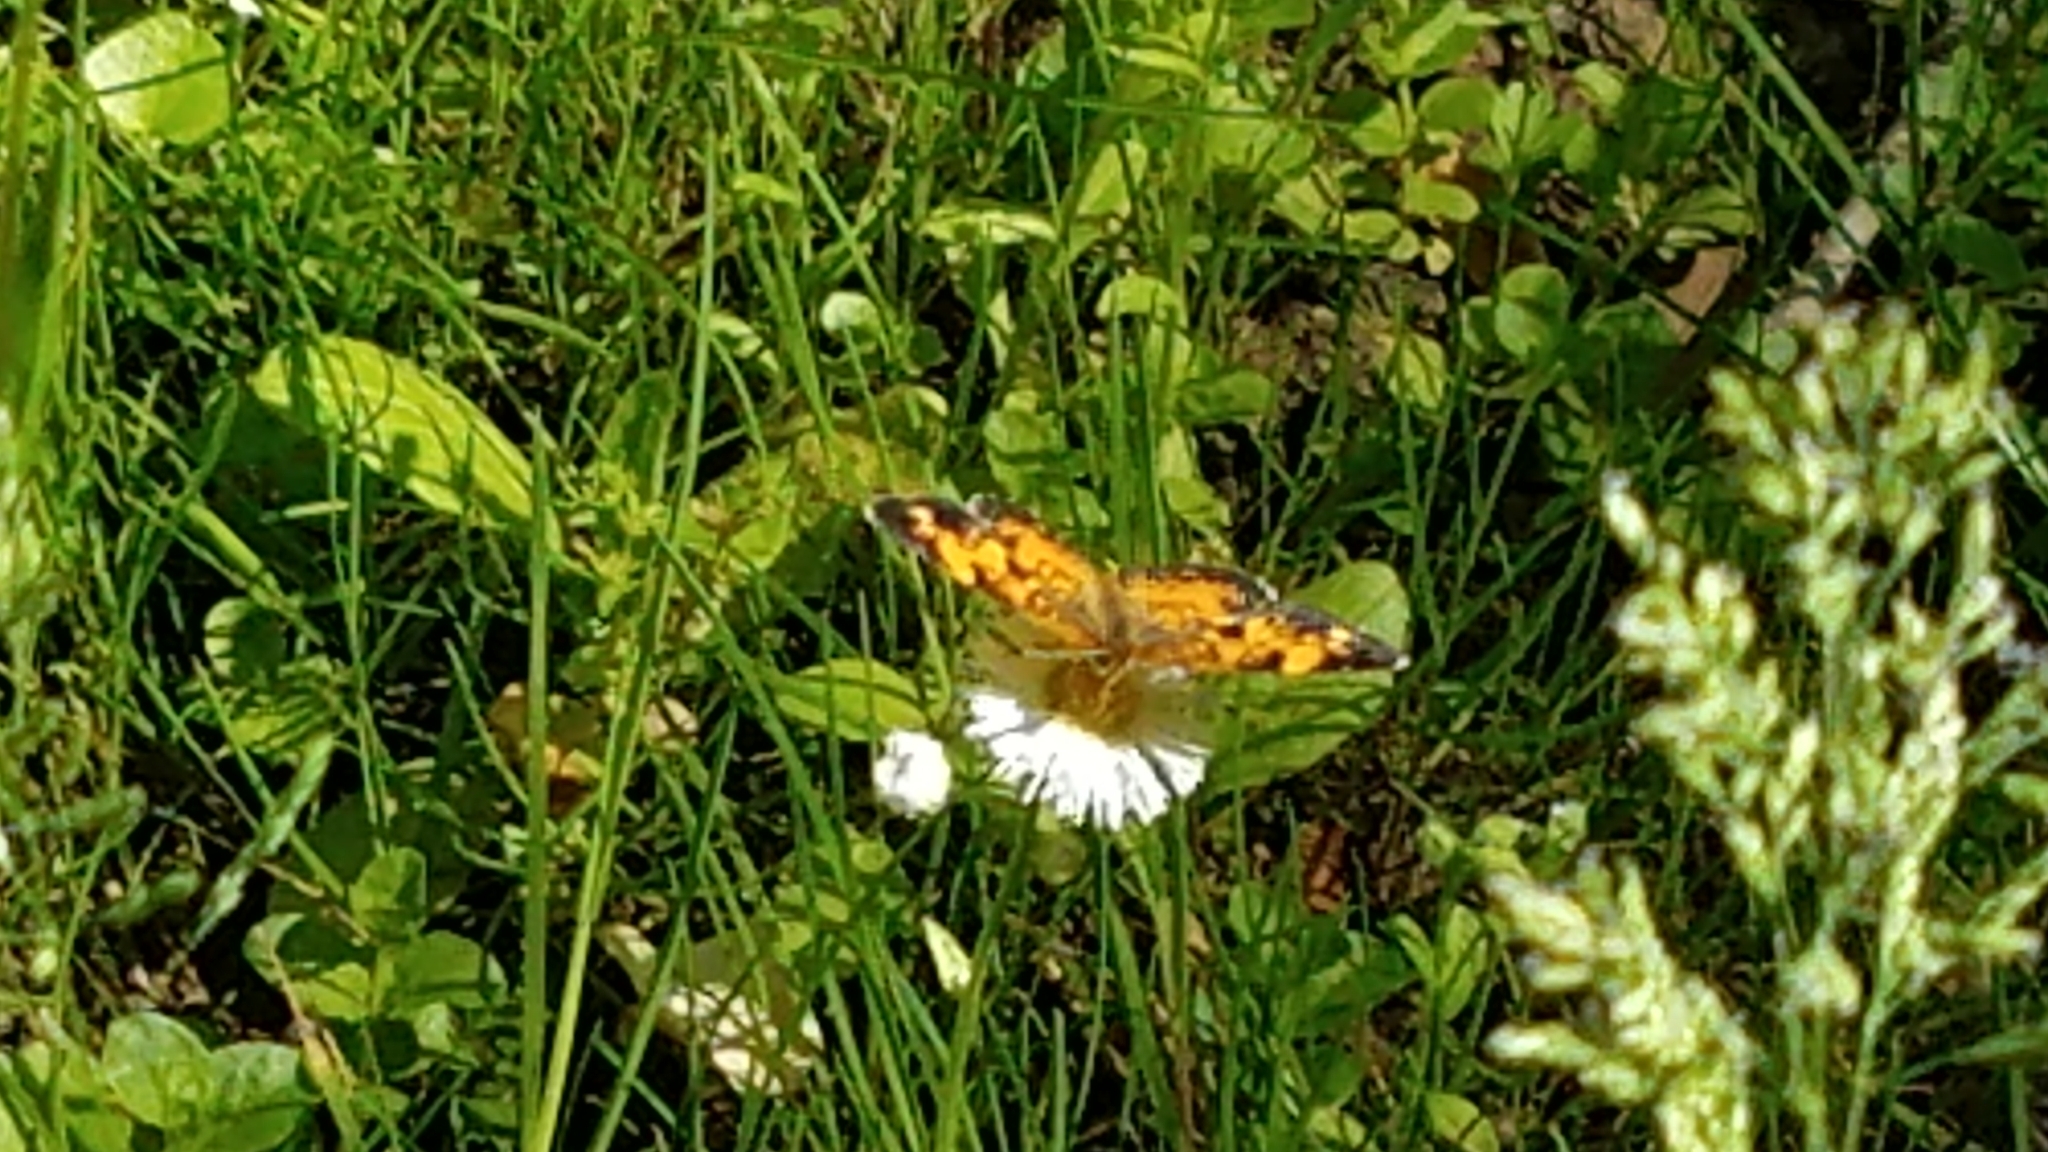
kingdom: Animalia
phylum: Arthropoda
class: Insecta
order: Lepidoptera
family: Nymphalidae
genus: Phyciodes
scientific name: Phyciodes tharos
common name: Pearl crescent
